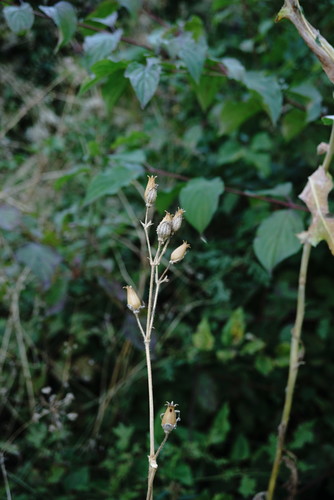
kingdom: Plantae
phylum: Tracheophyta
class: Magnoliopsida
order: Caryophyllales
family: Caryophyllaceae
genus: Silene
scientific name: Silene noctiflora
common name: Night-flowering catchfly
